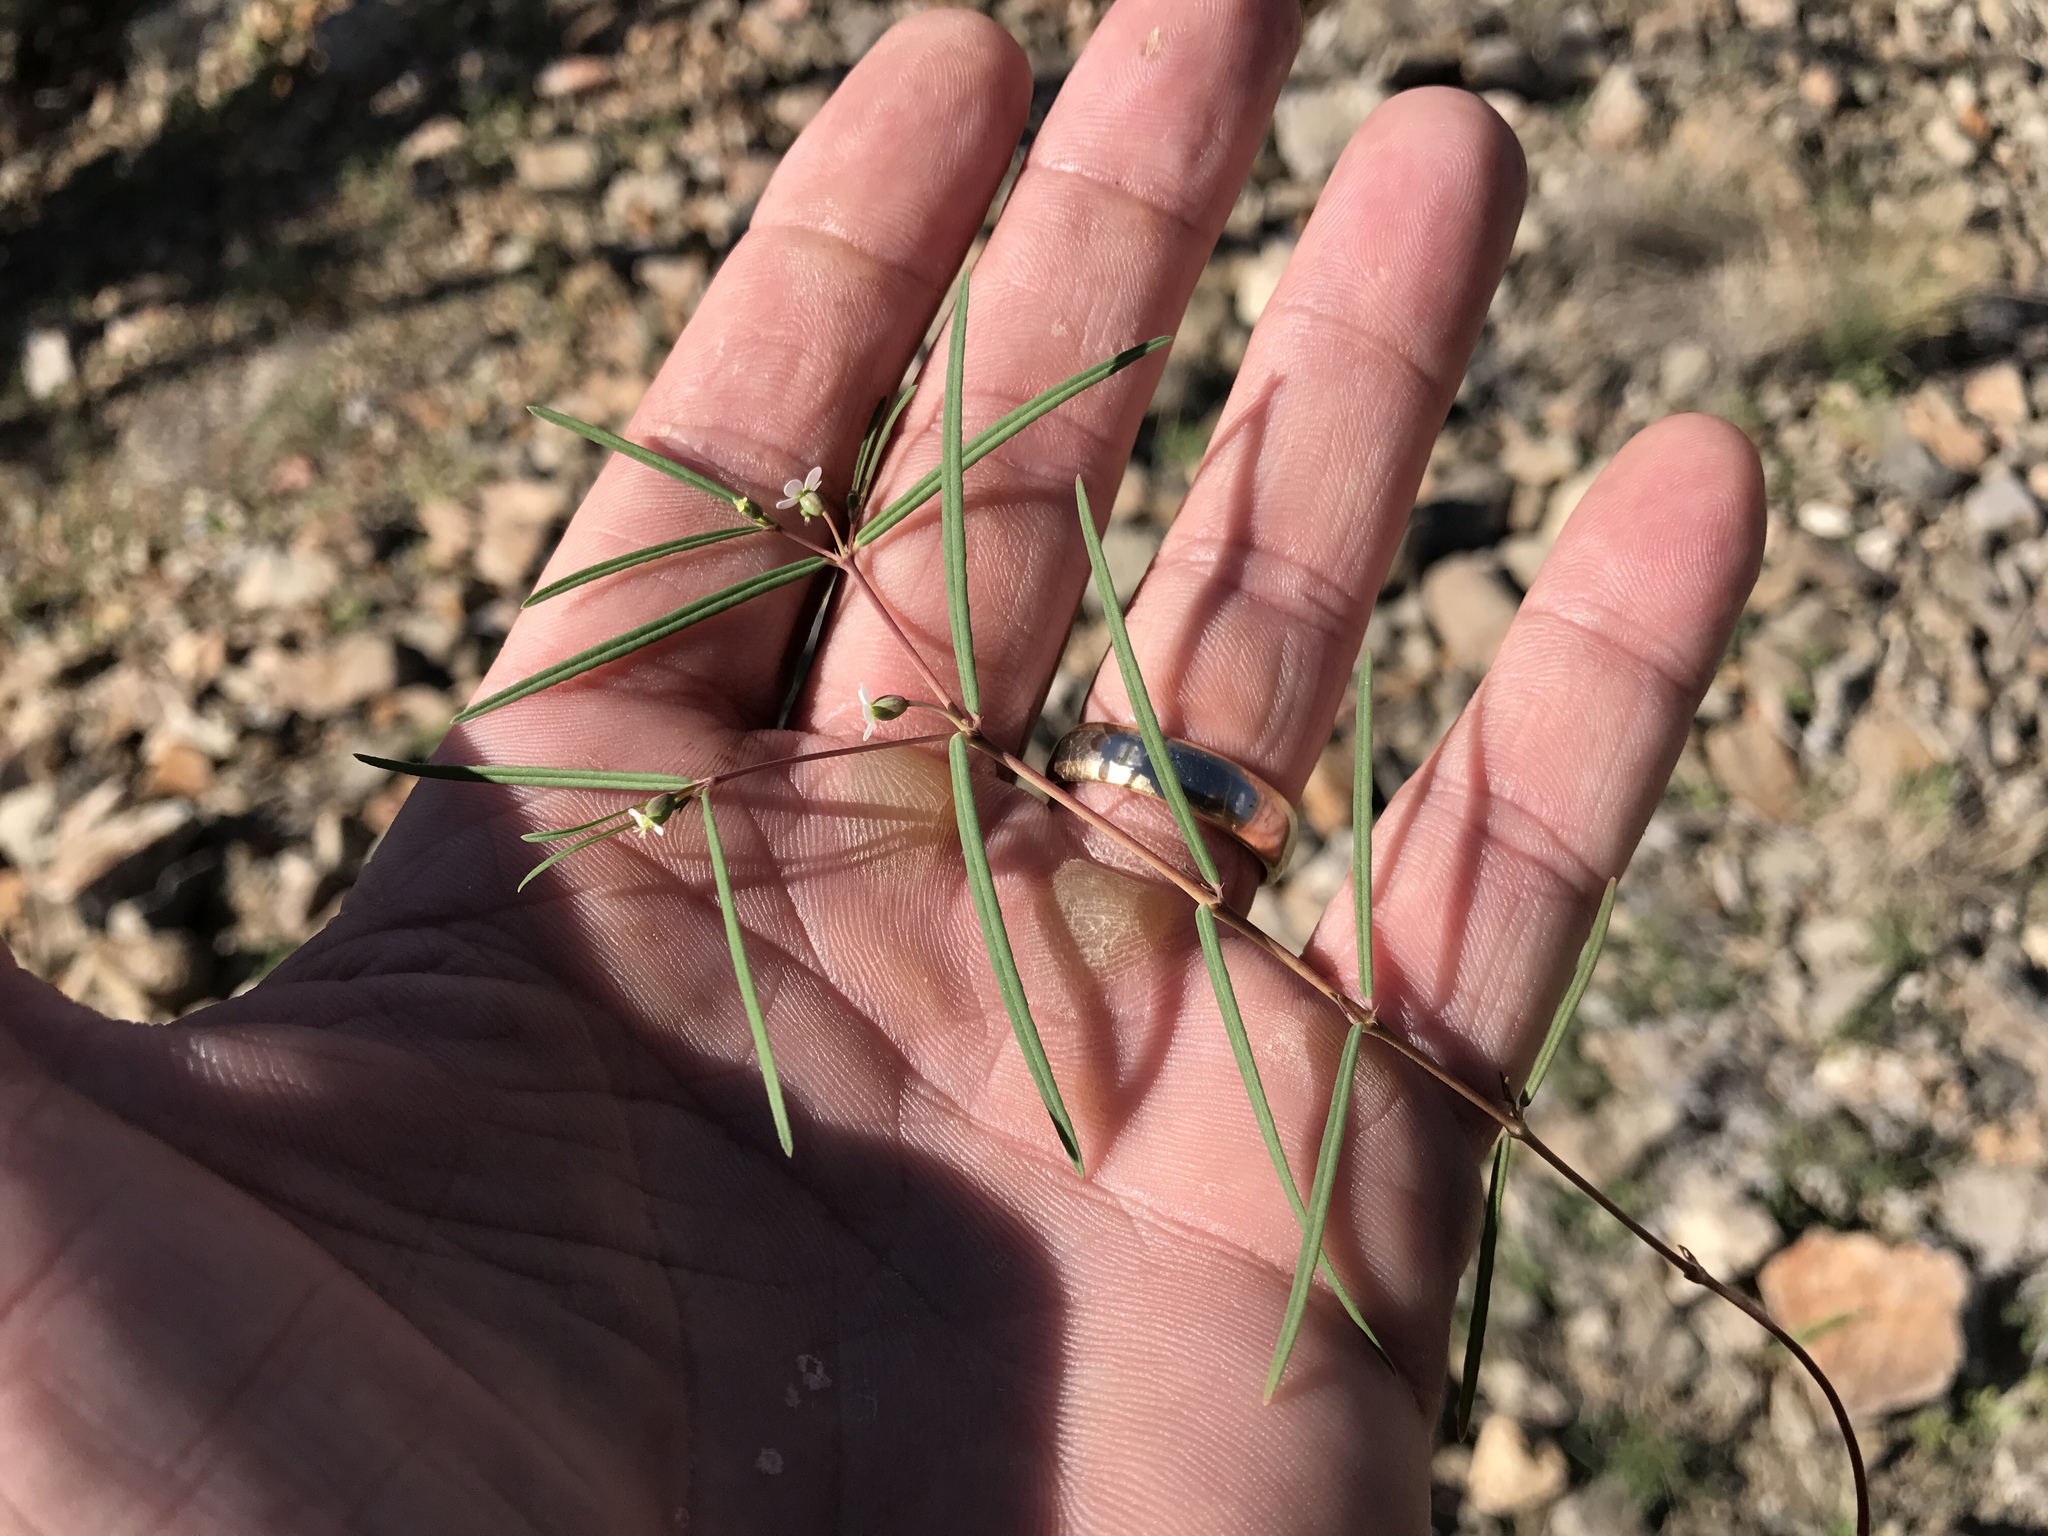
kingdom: Plantae
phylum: Tracheophyta
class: Magnoliopsida
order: Malpighiales
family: Euphorbiaceae
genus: Euphorbia
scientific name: Euphorbia florida
